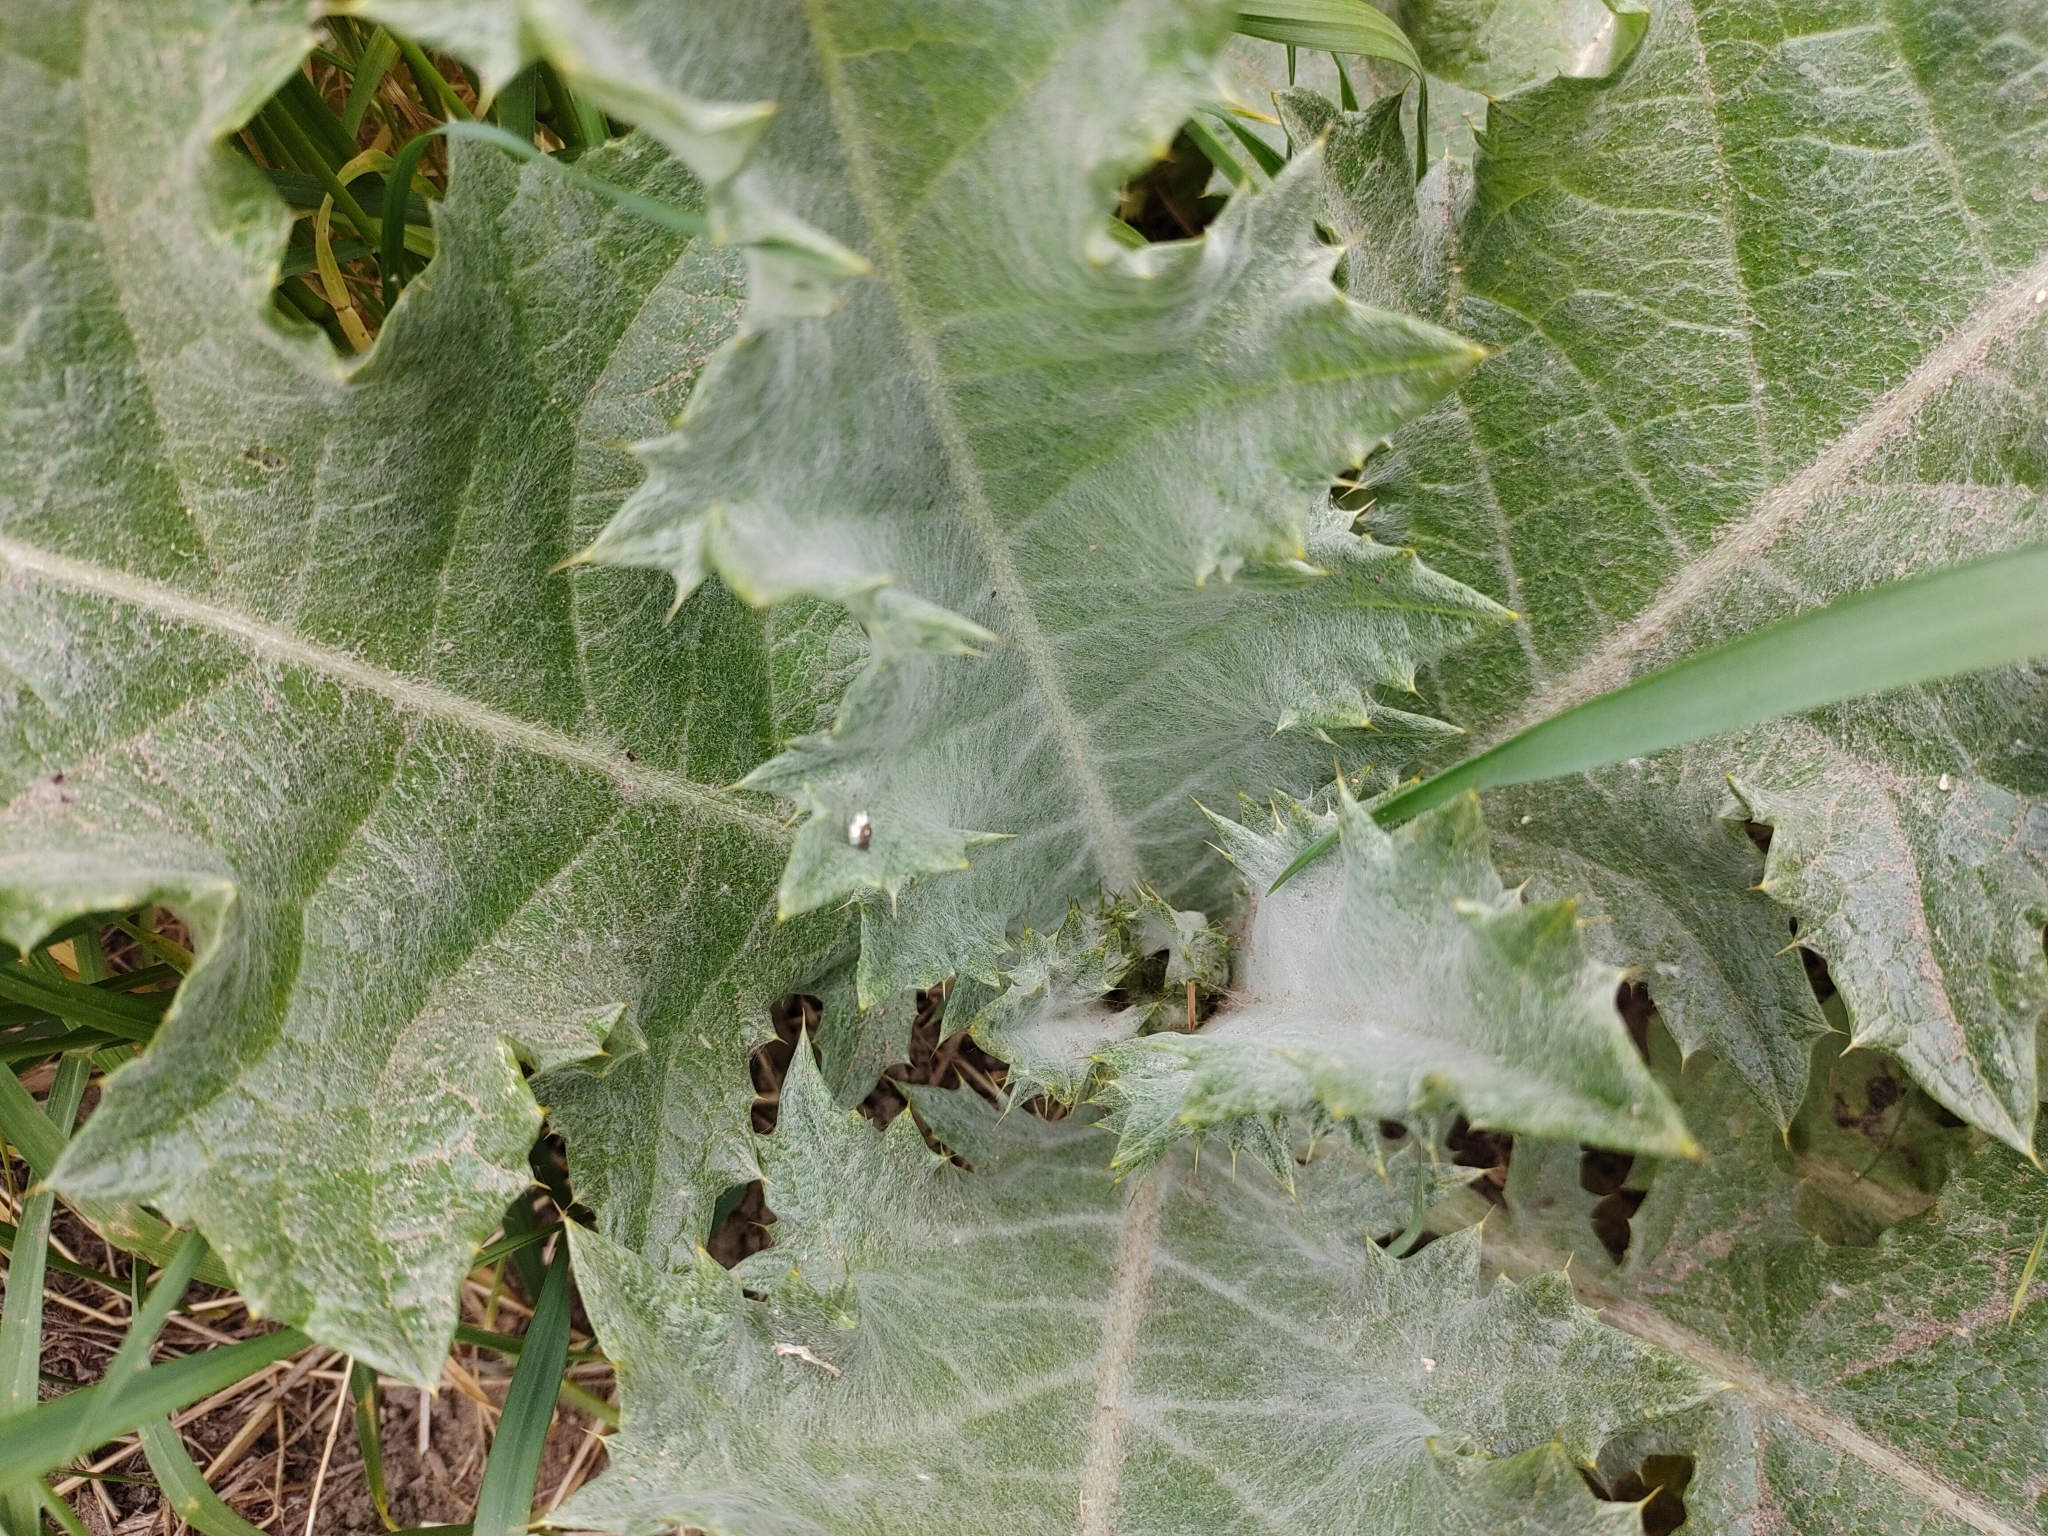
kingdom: Plantae
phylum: Tracheophyta
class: Magnoliopsida
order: Asterales
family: Asteraceae
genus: Onopordum
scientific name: Onopordum acanthium
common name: Scotch thistle
